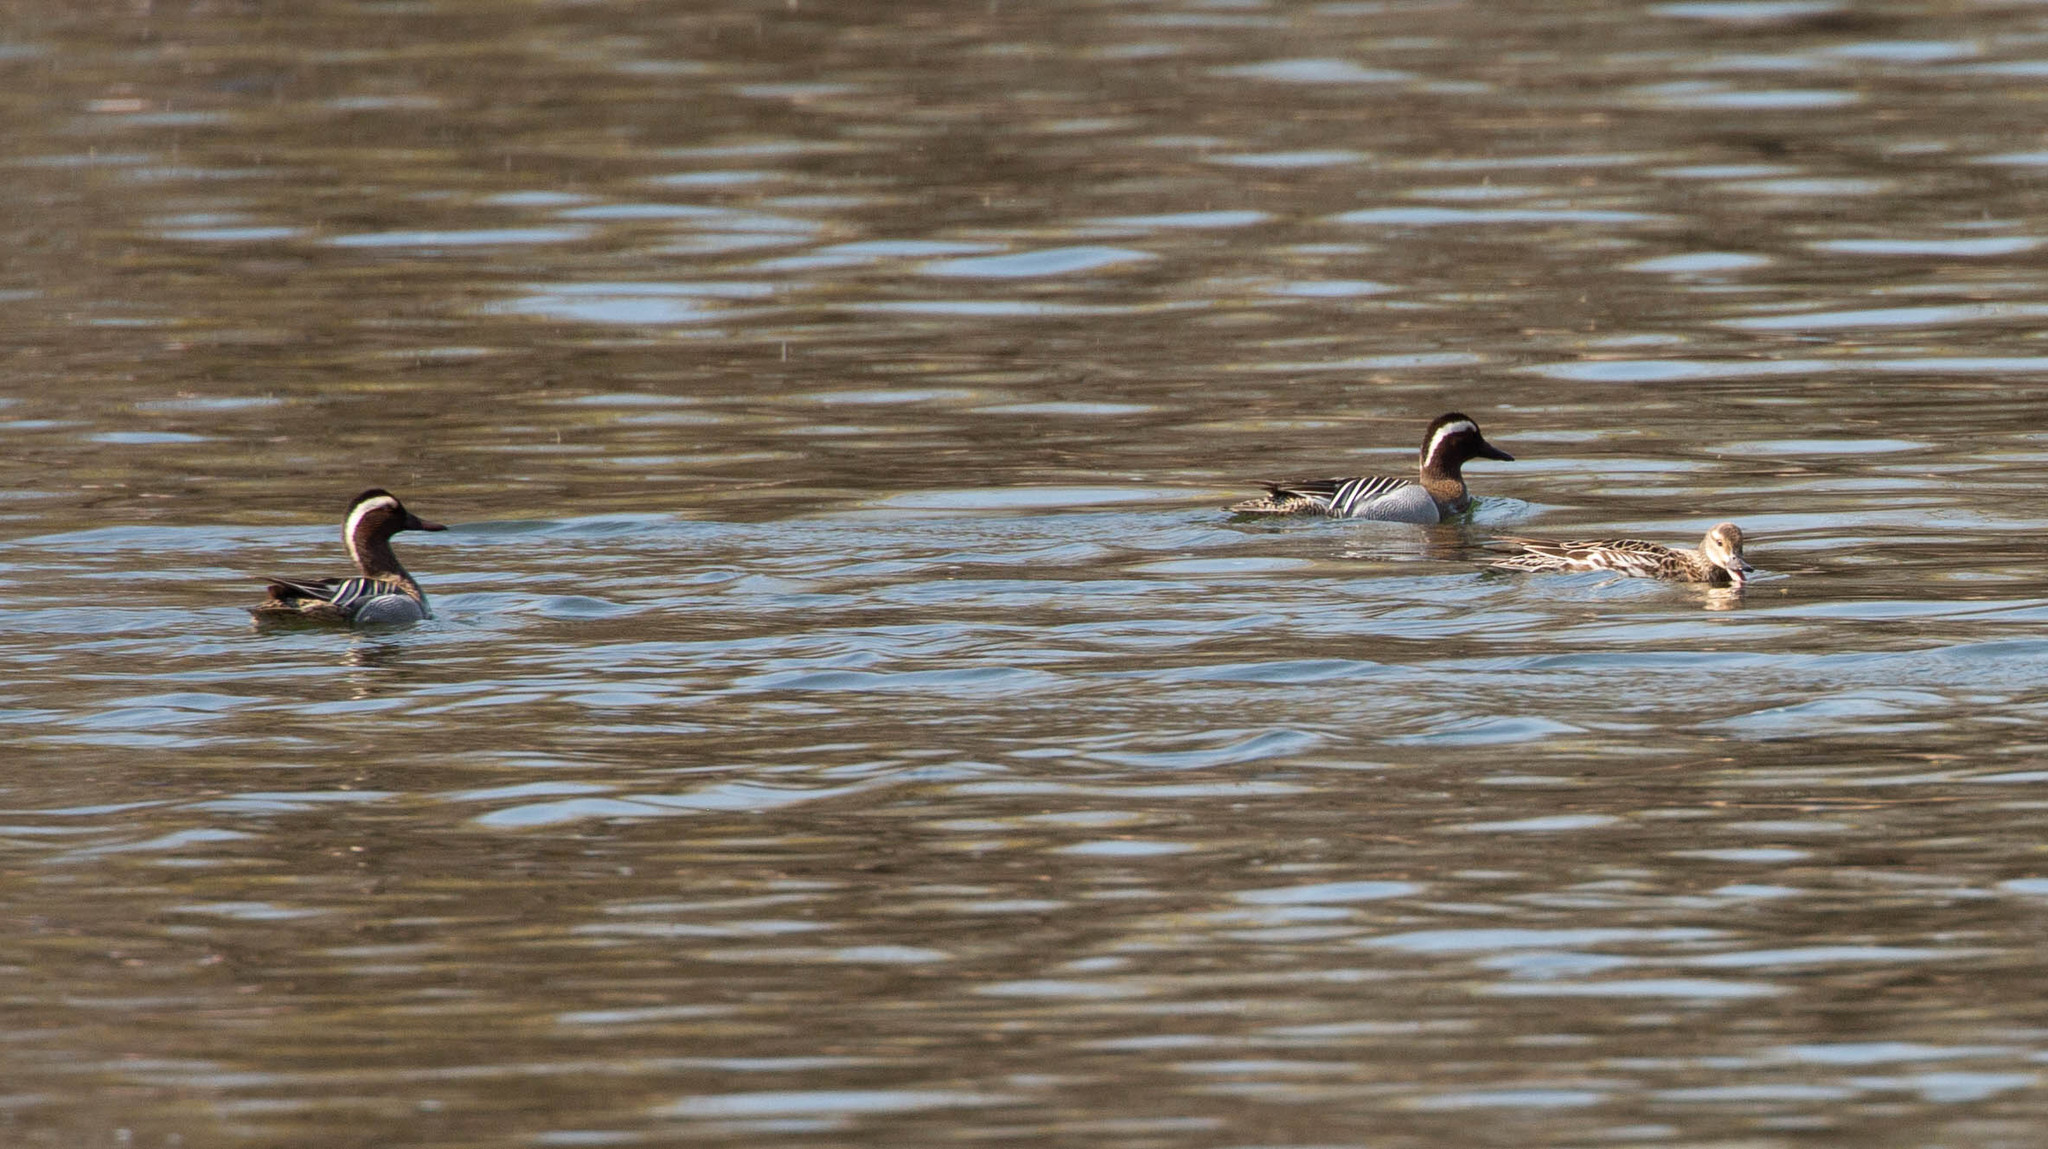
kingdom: Animalia
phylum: Chordata
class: Aves
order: Anseriformes
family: Anatidae
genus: Spatula
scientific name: Spatula querquedula
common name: Garganey
